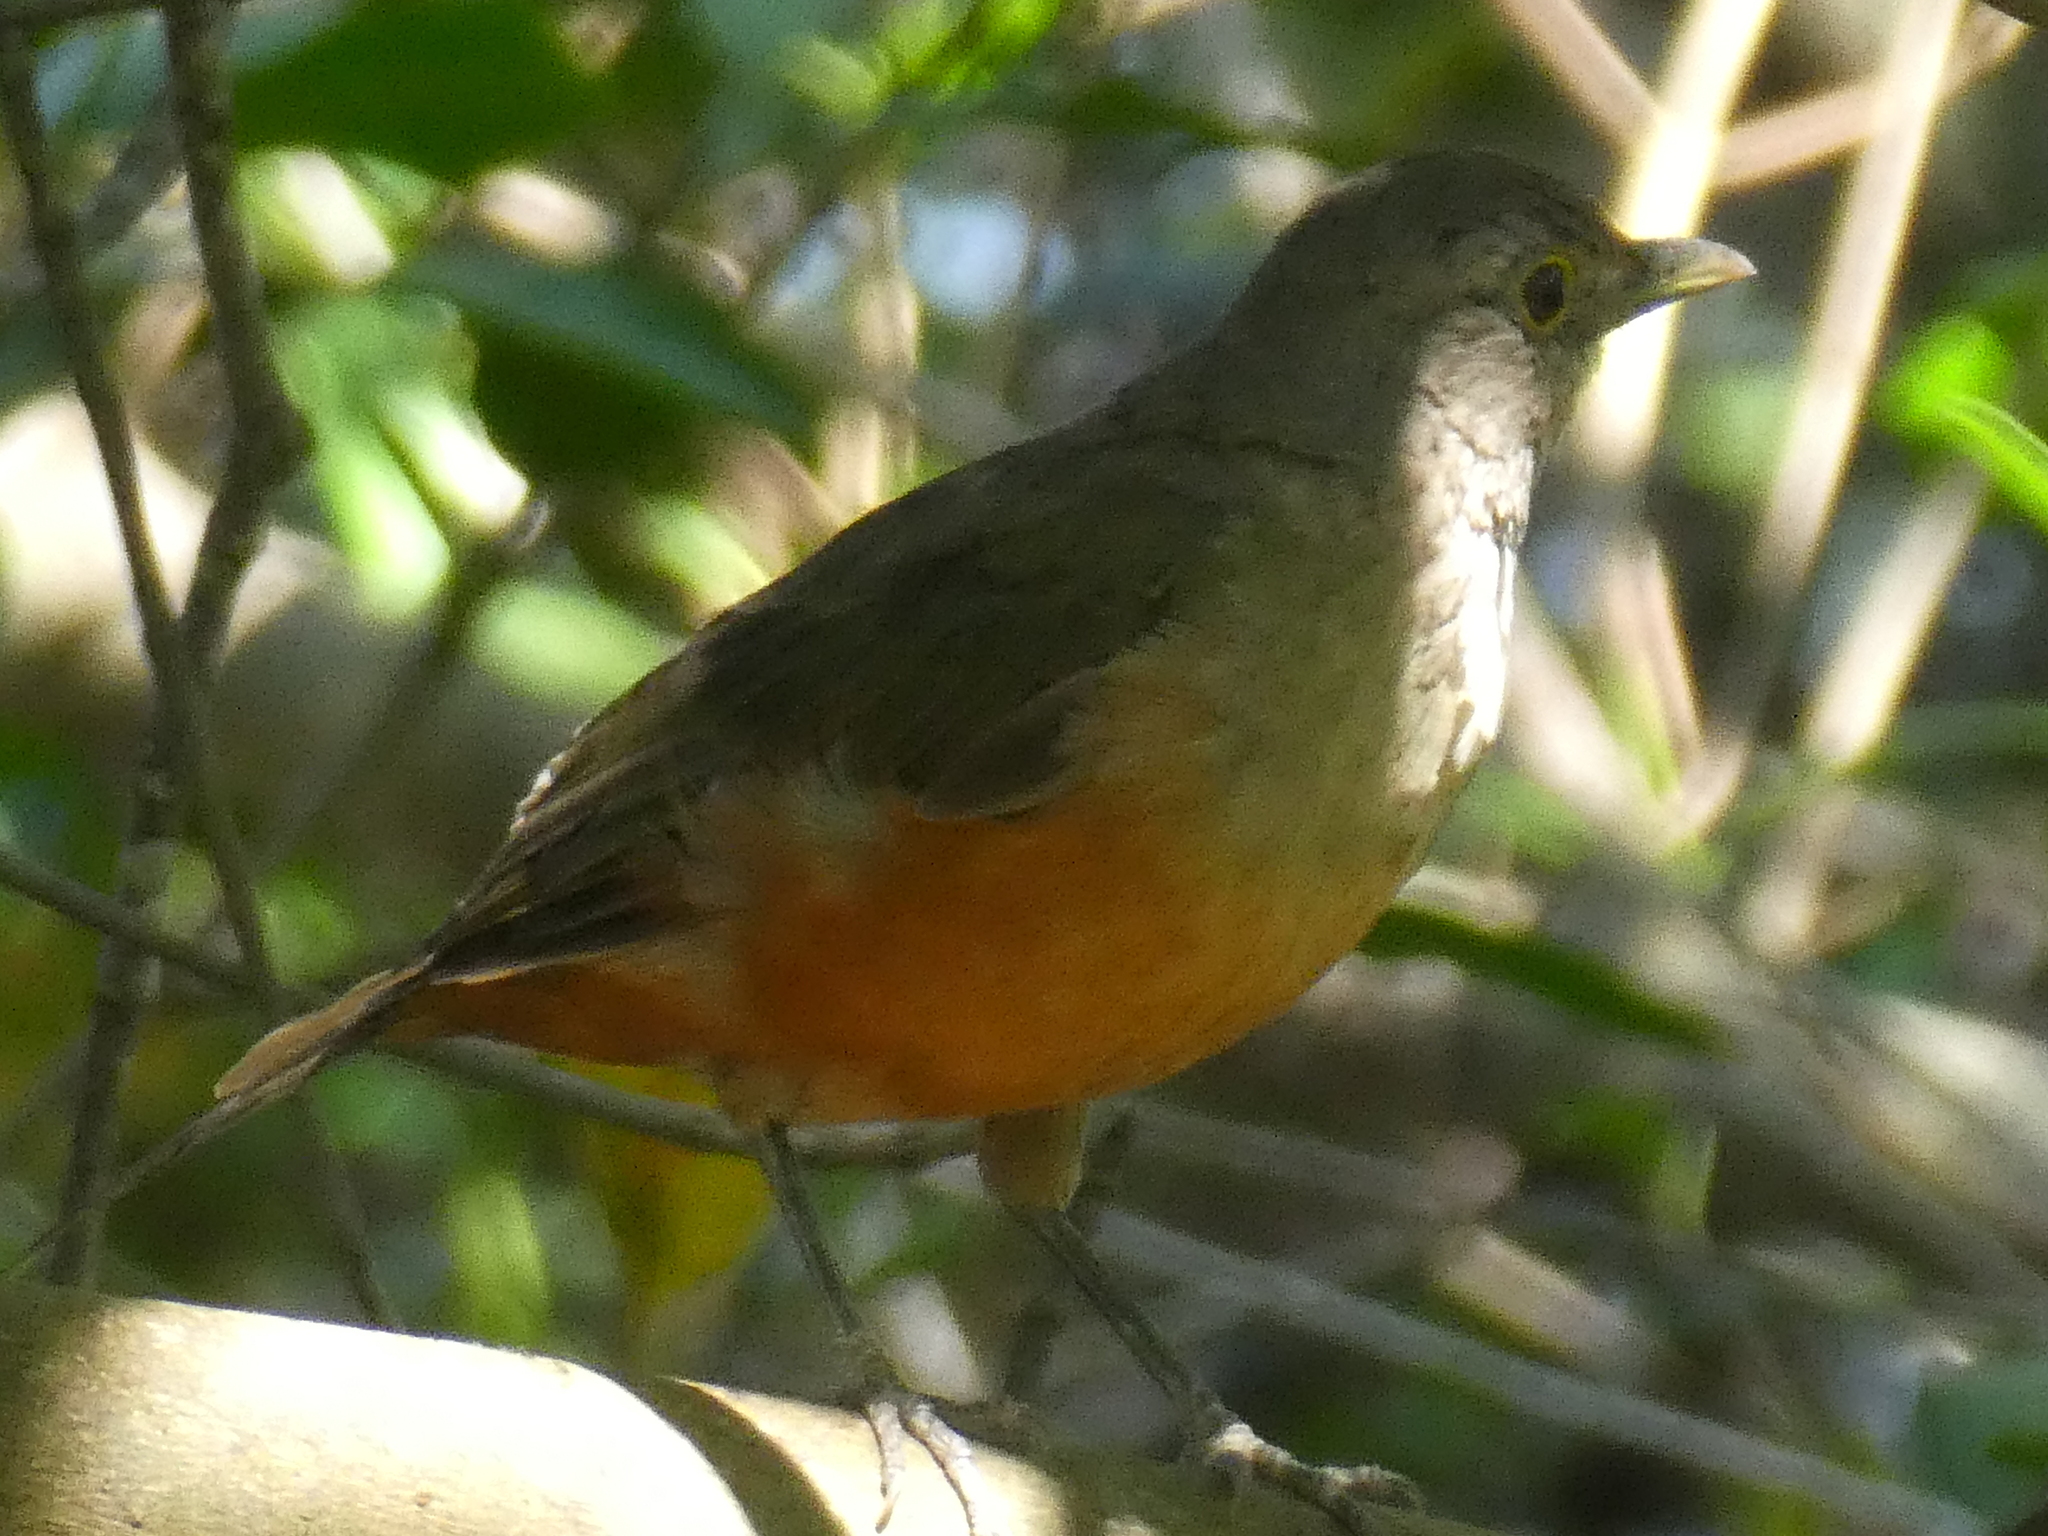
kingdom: Animalia
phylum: Chordata
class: Aves
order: Passeriformes
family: Turdidae
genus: Turdus
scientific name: Turdus rufiventris
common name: Rufous-bellied thrush
